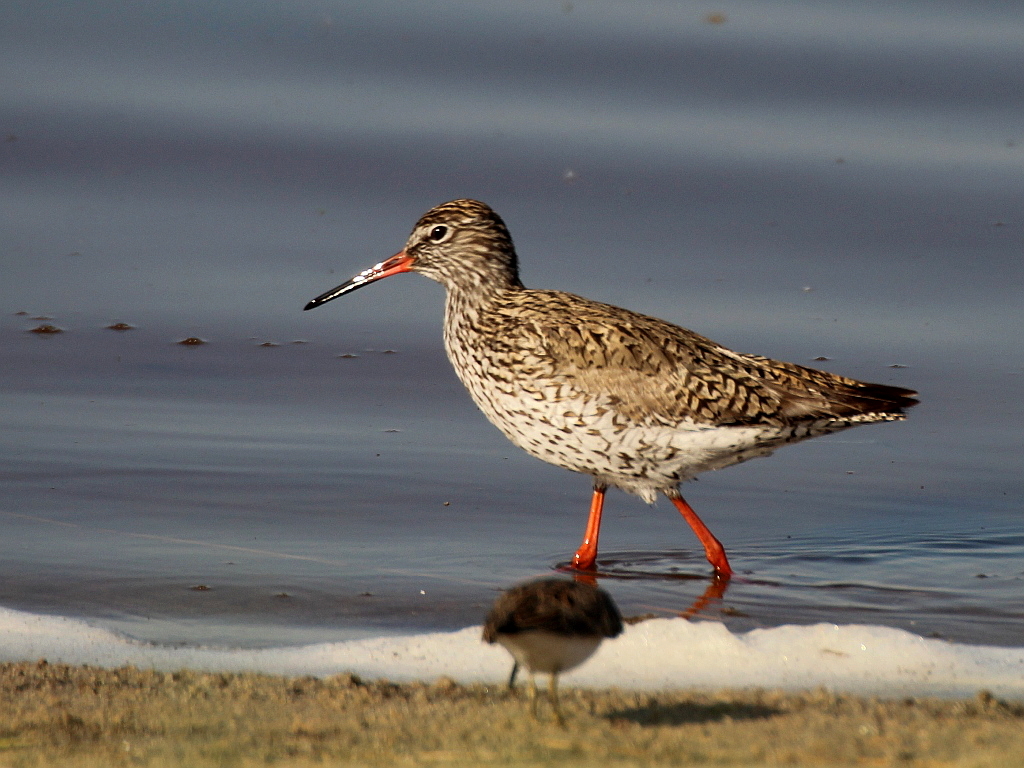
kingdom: Animalia
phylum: Chordata
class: Aves
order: Charadriiformes
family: Scolopacidae
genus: Tringa
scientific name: Tringa totanus
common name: Common redshank
